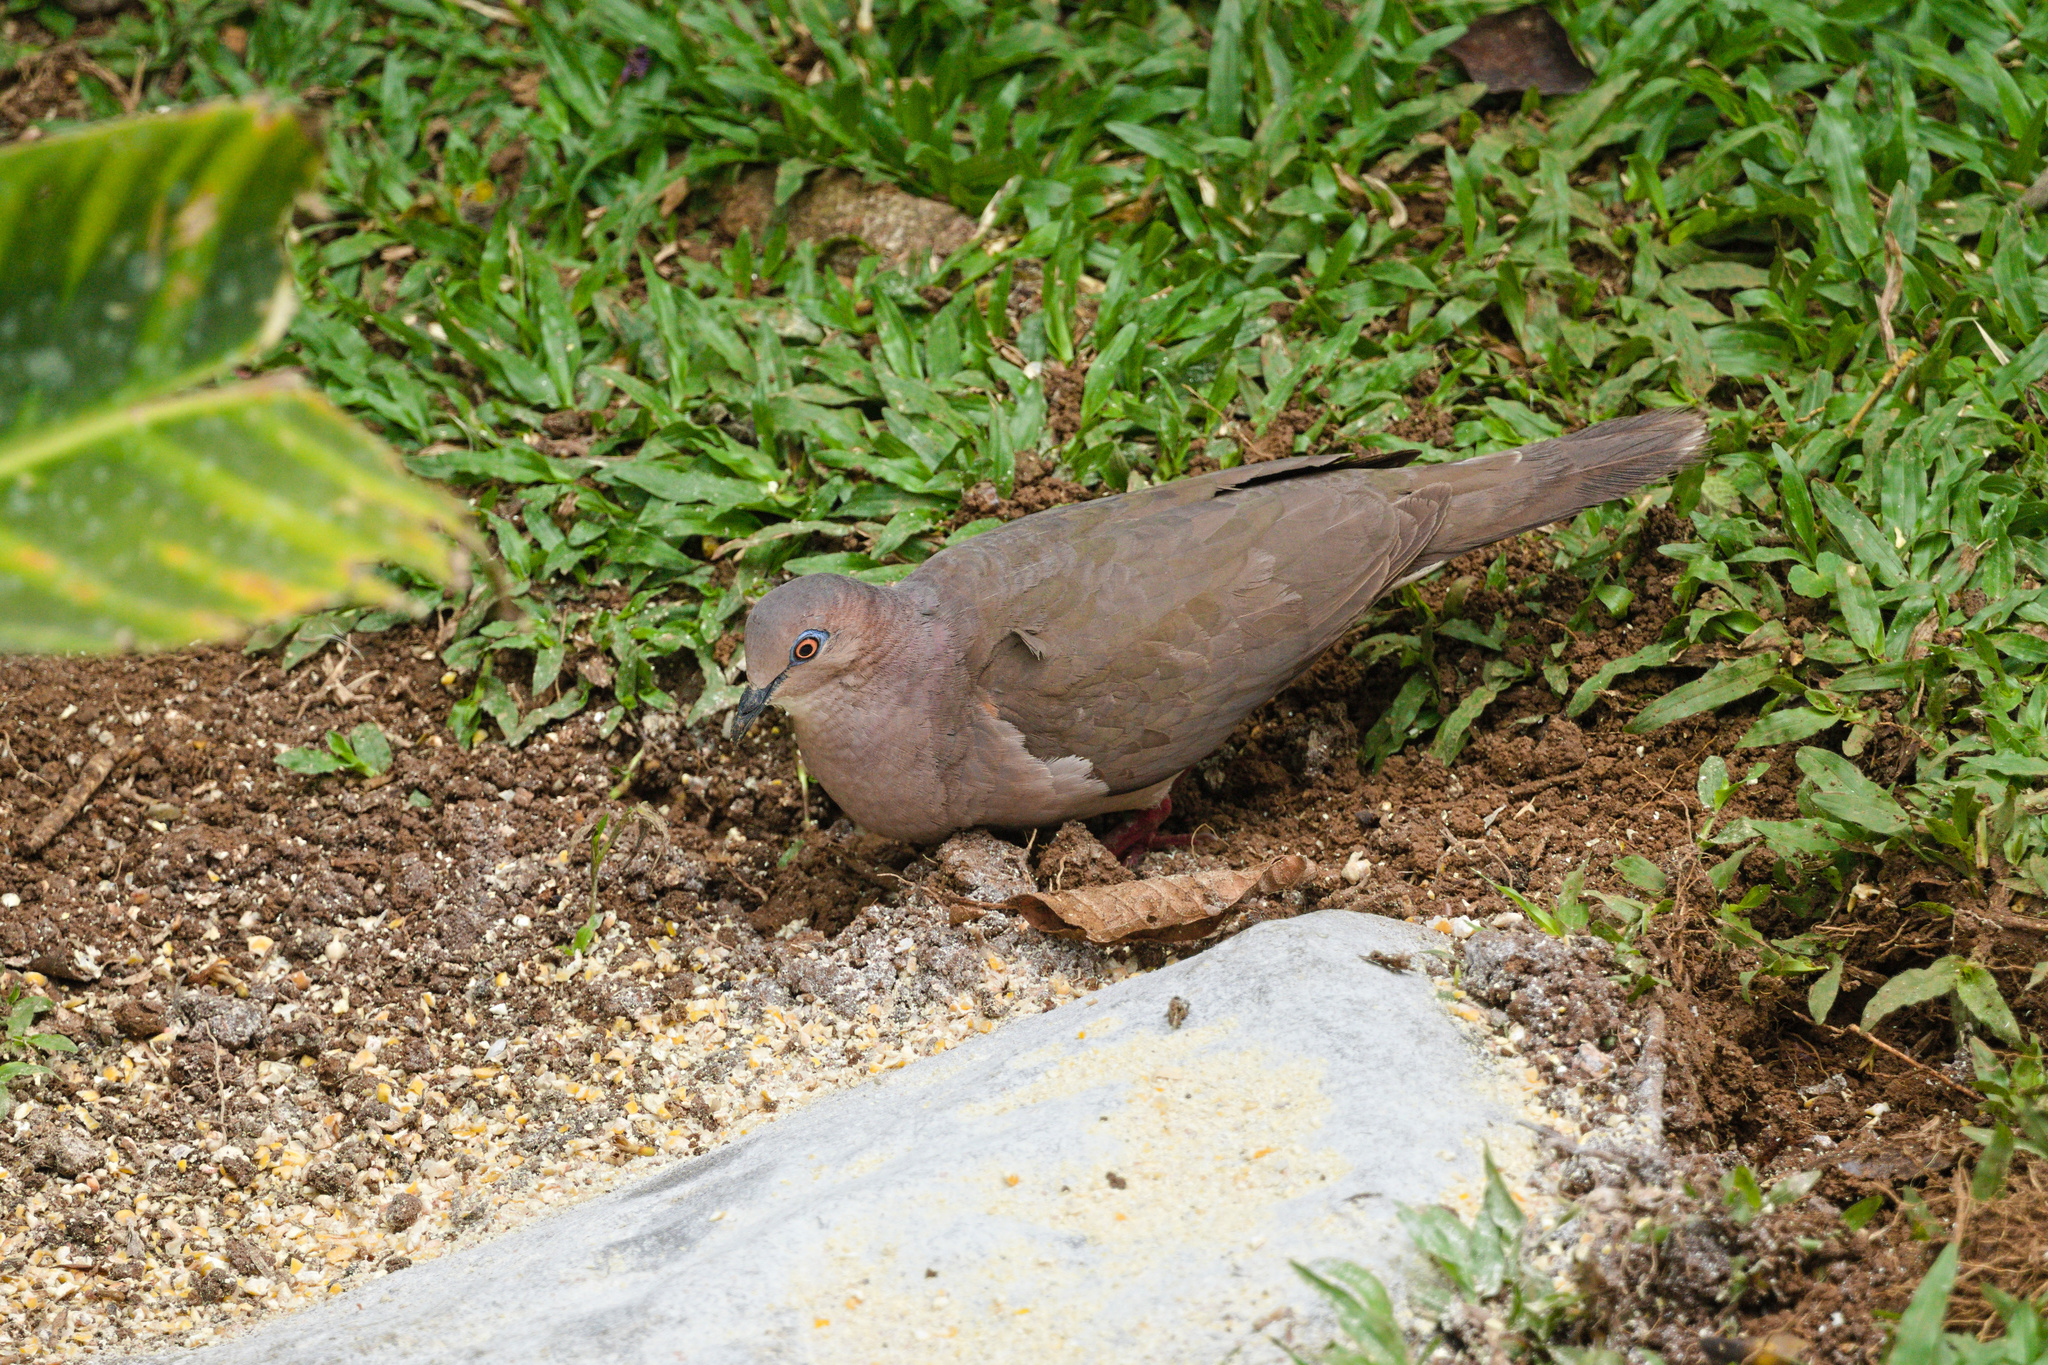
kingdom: Animalia
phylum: Chordata
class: Aves
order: Columbiformes
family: Columbidae
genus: Leptotila
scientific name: Leptotila verreauxi
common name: White-tipped dove
